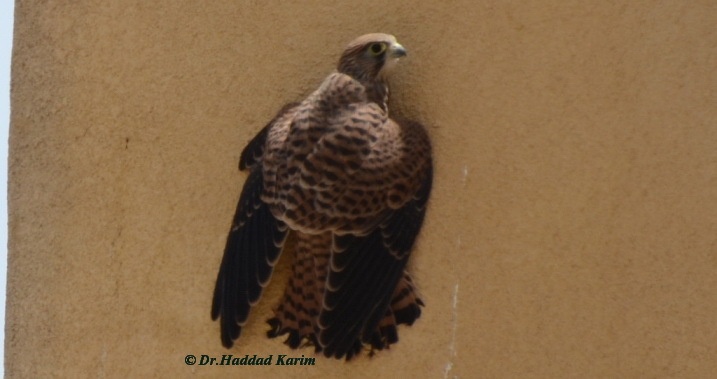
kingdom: Animalia
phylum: Chordata
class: Aves
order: Falconiformes
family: Falconidae
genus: Falco
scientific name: Falco tinnunculus
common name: Common kestrel
